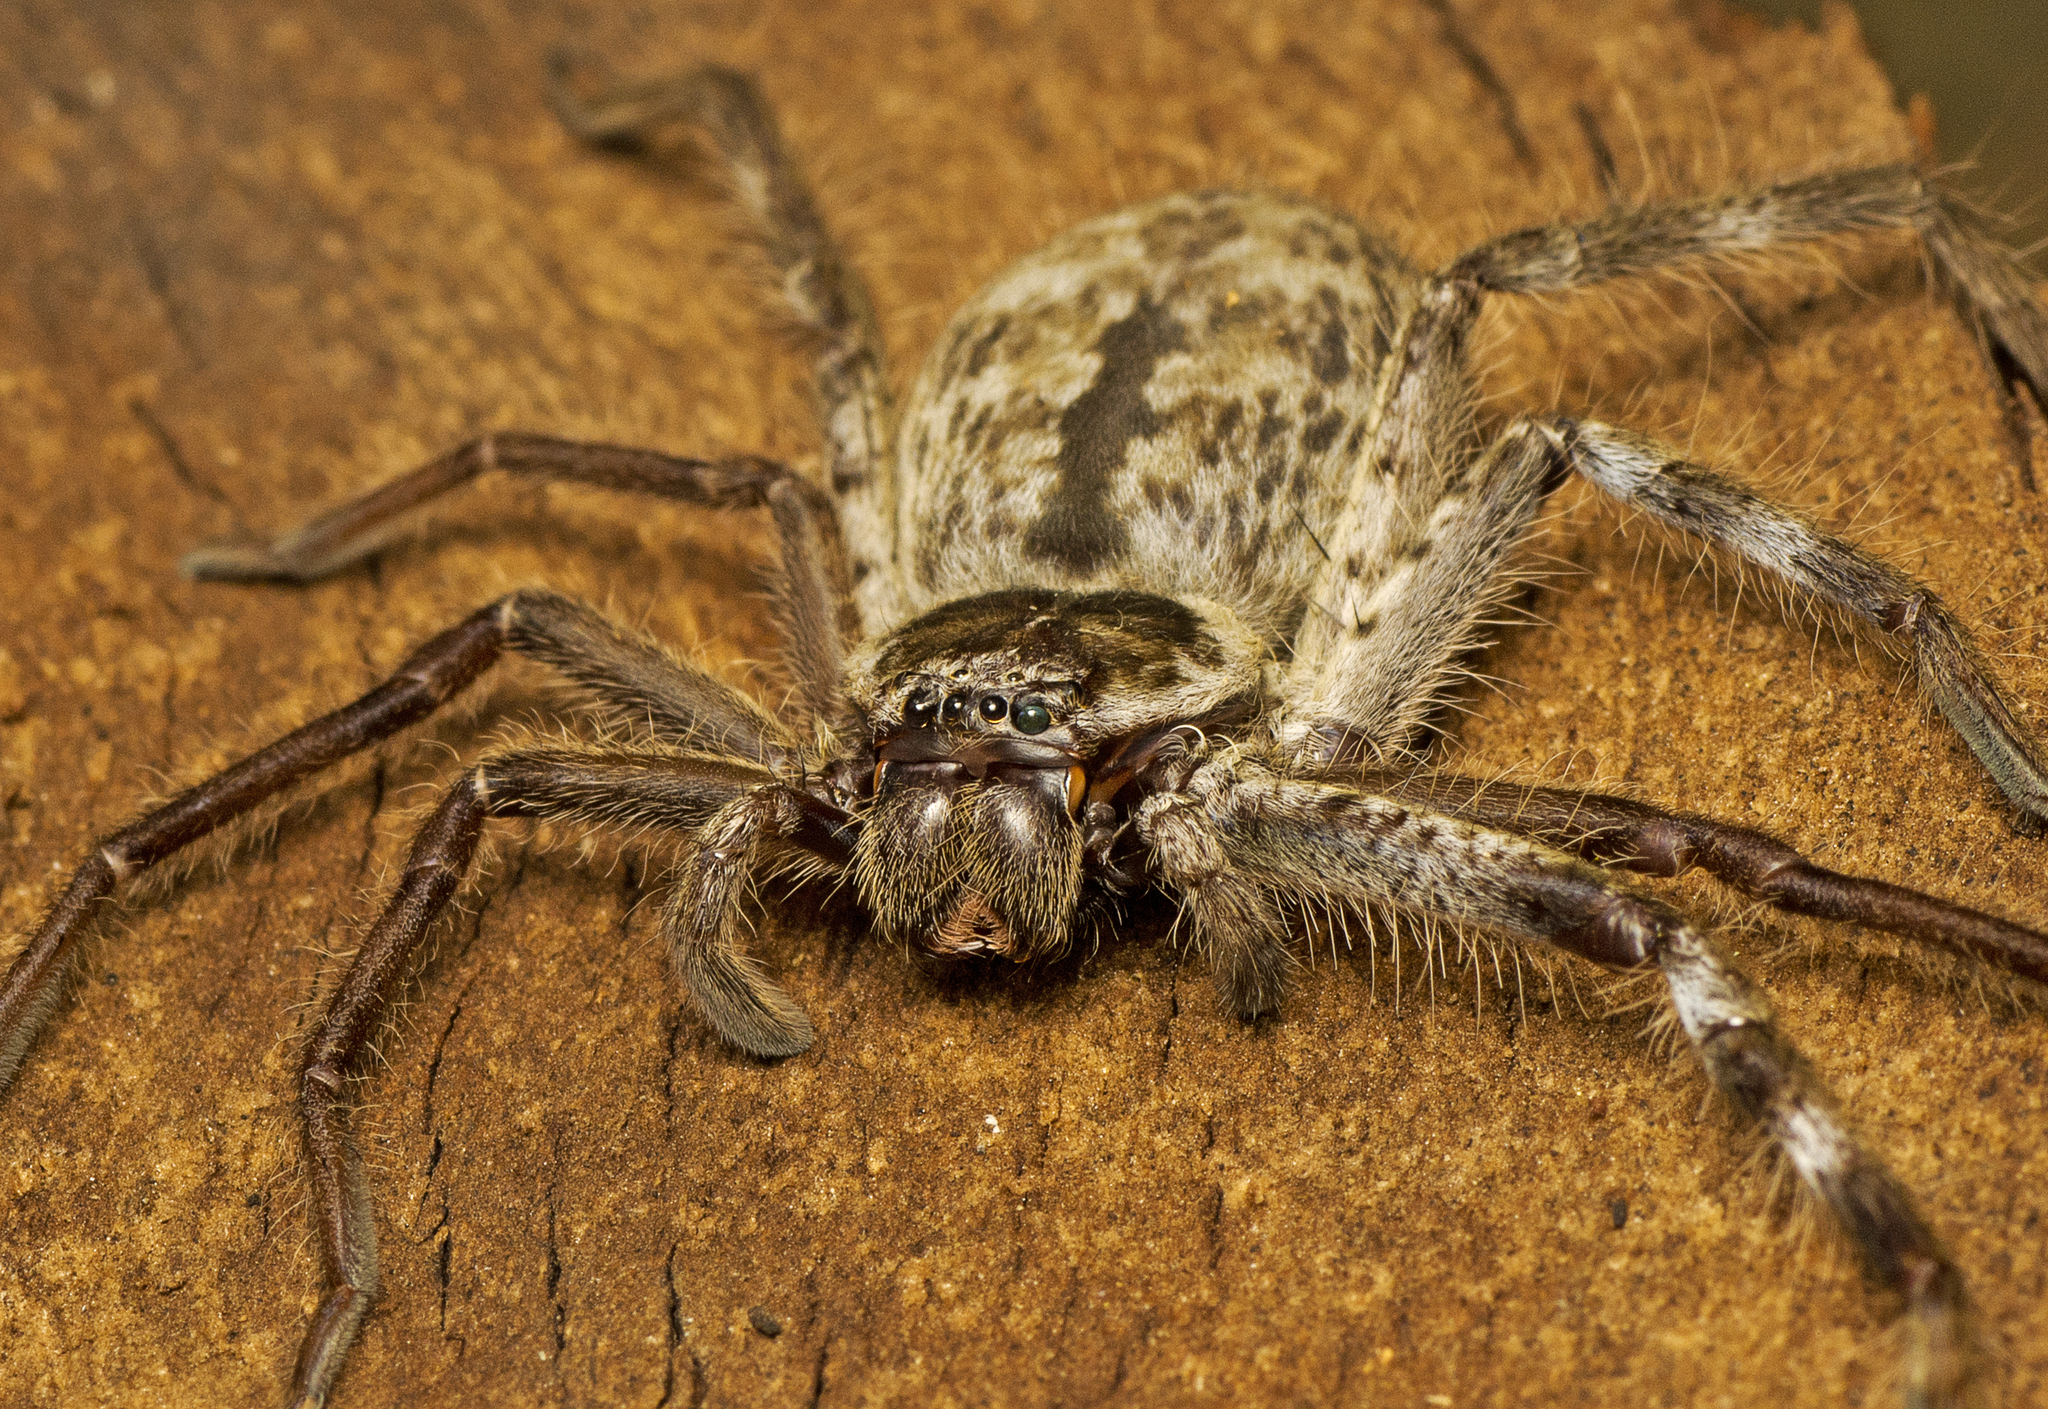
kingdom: Animalia
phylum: Arthropoda
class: Arachnida
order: Araneae
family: Sparassidae
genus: Holconia
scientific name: Holconia immanis
